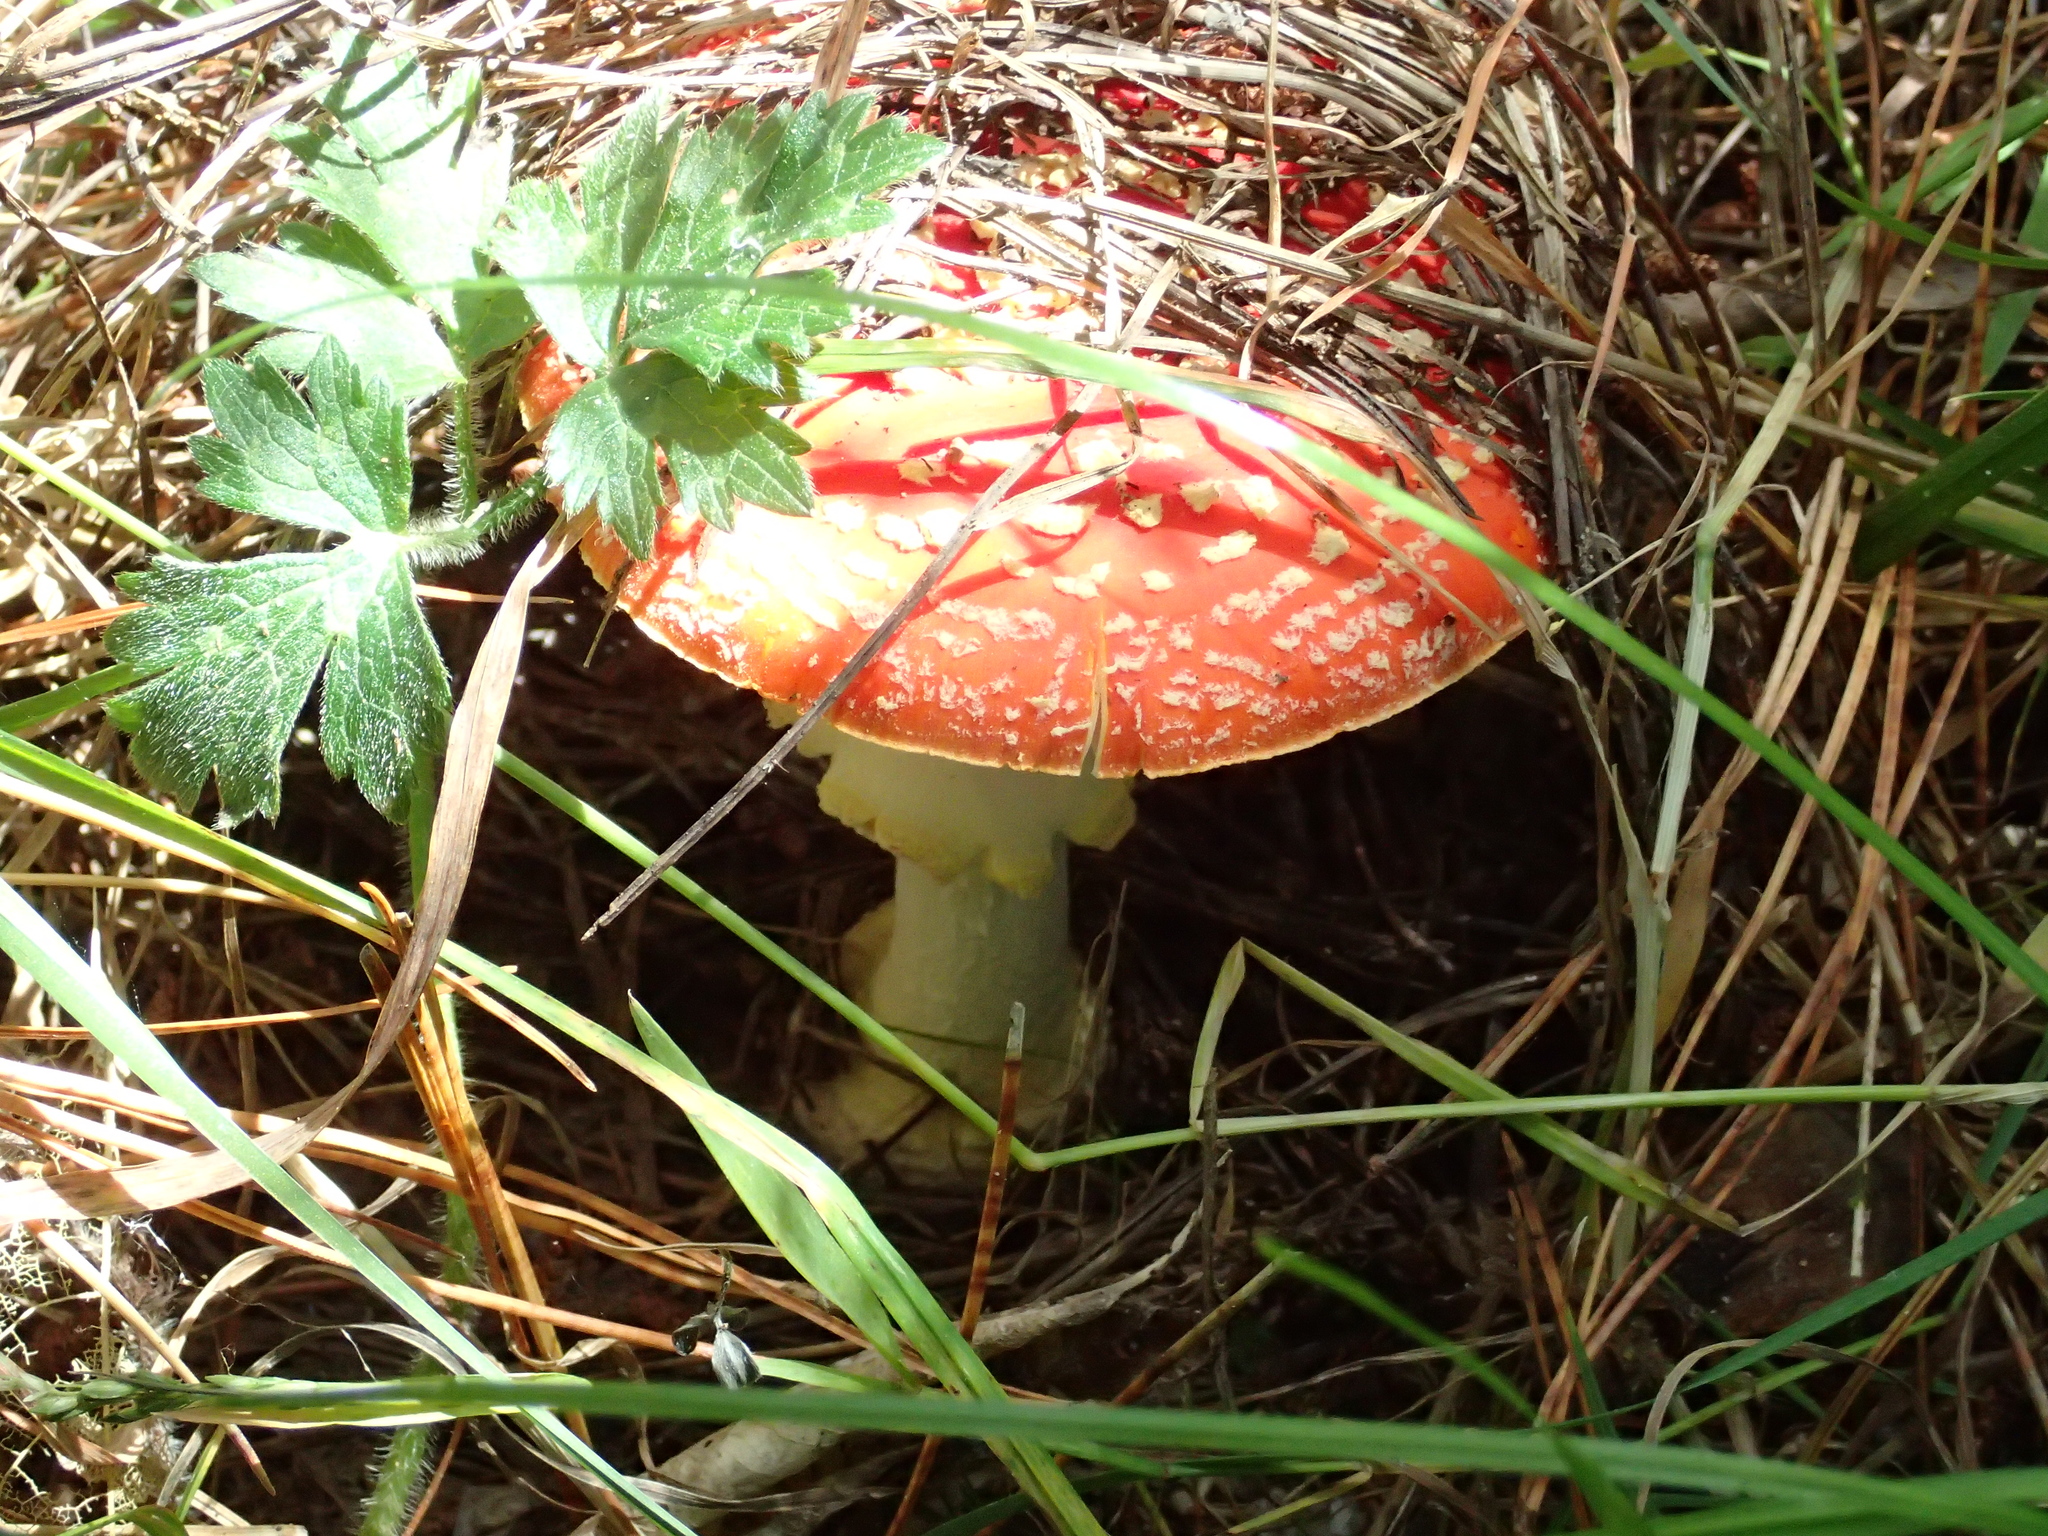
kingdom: Fungi
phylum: Basidiomycota
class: Agaricomycetes
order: Agaricales
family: Amanitaceae
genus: Amanita
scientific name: Amanita muscaria
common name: Fly agaric
